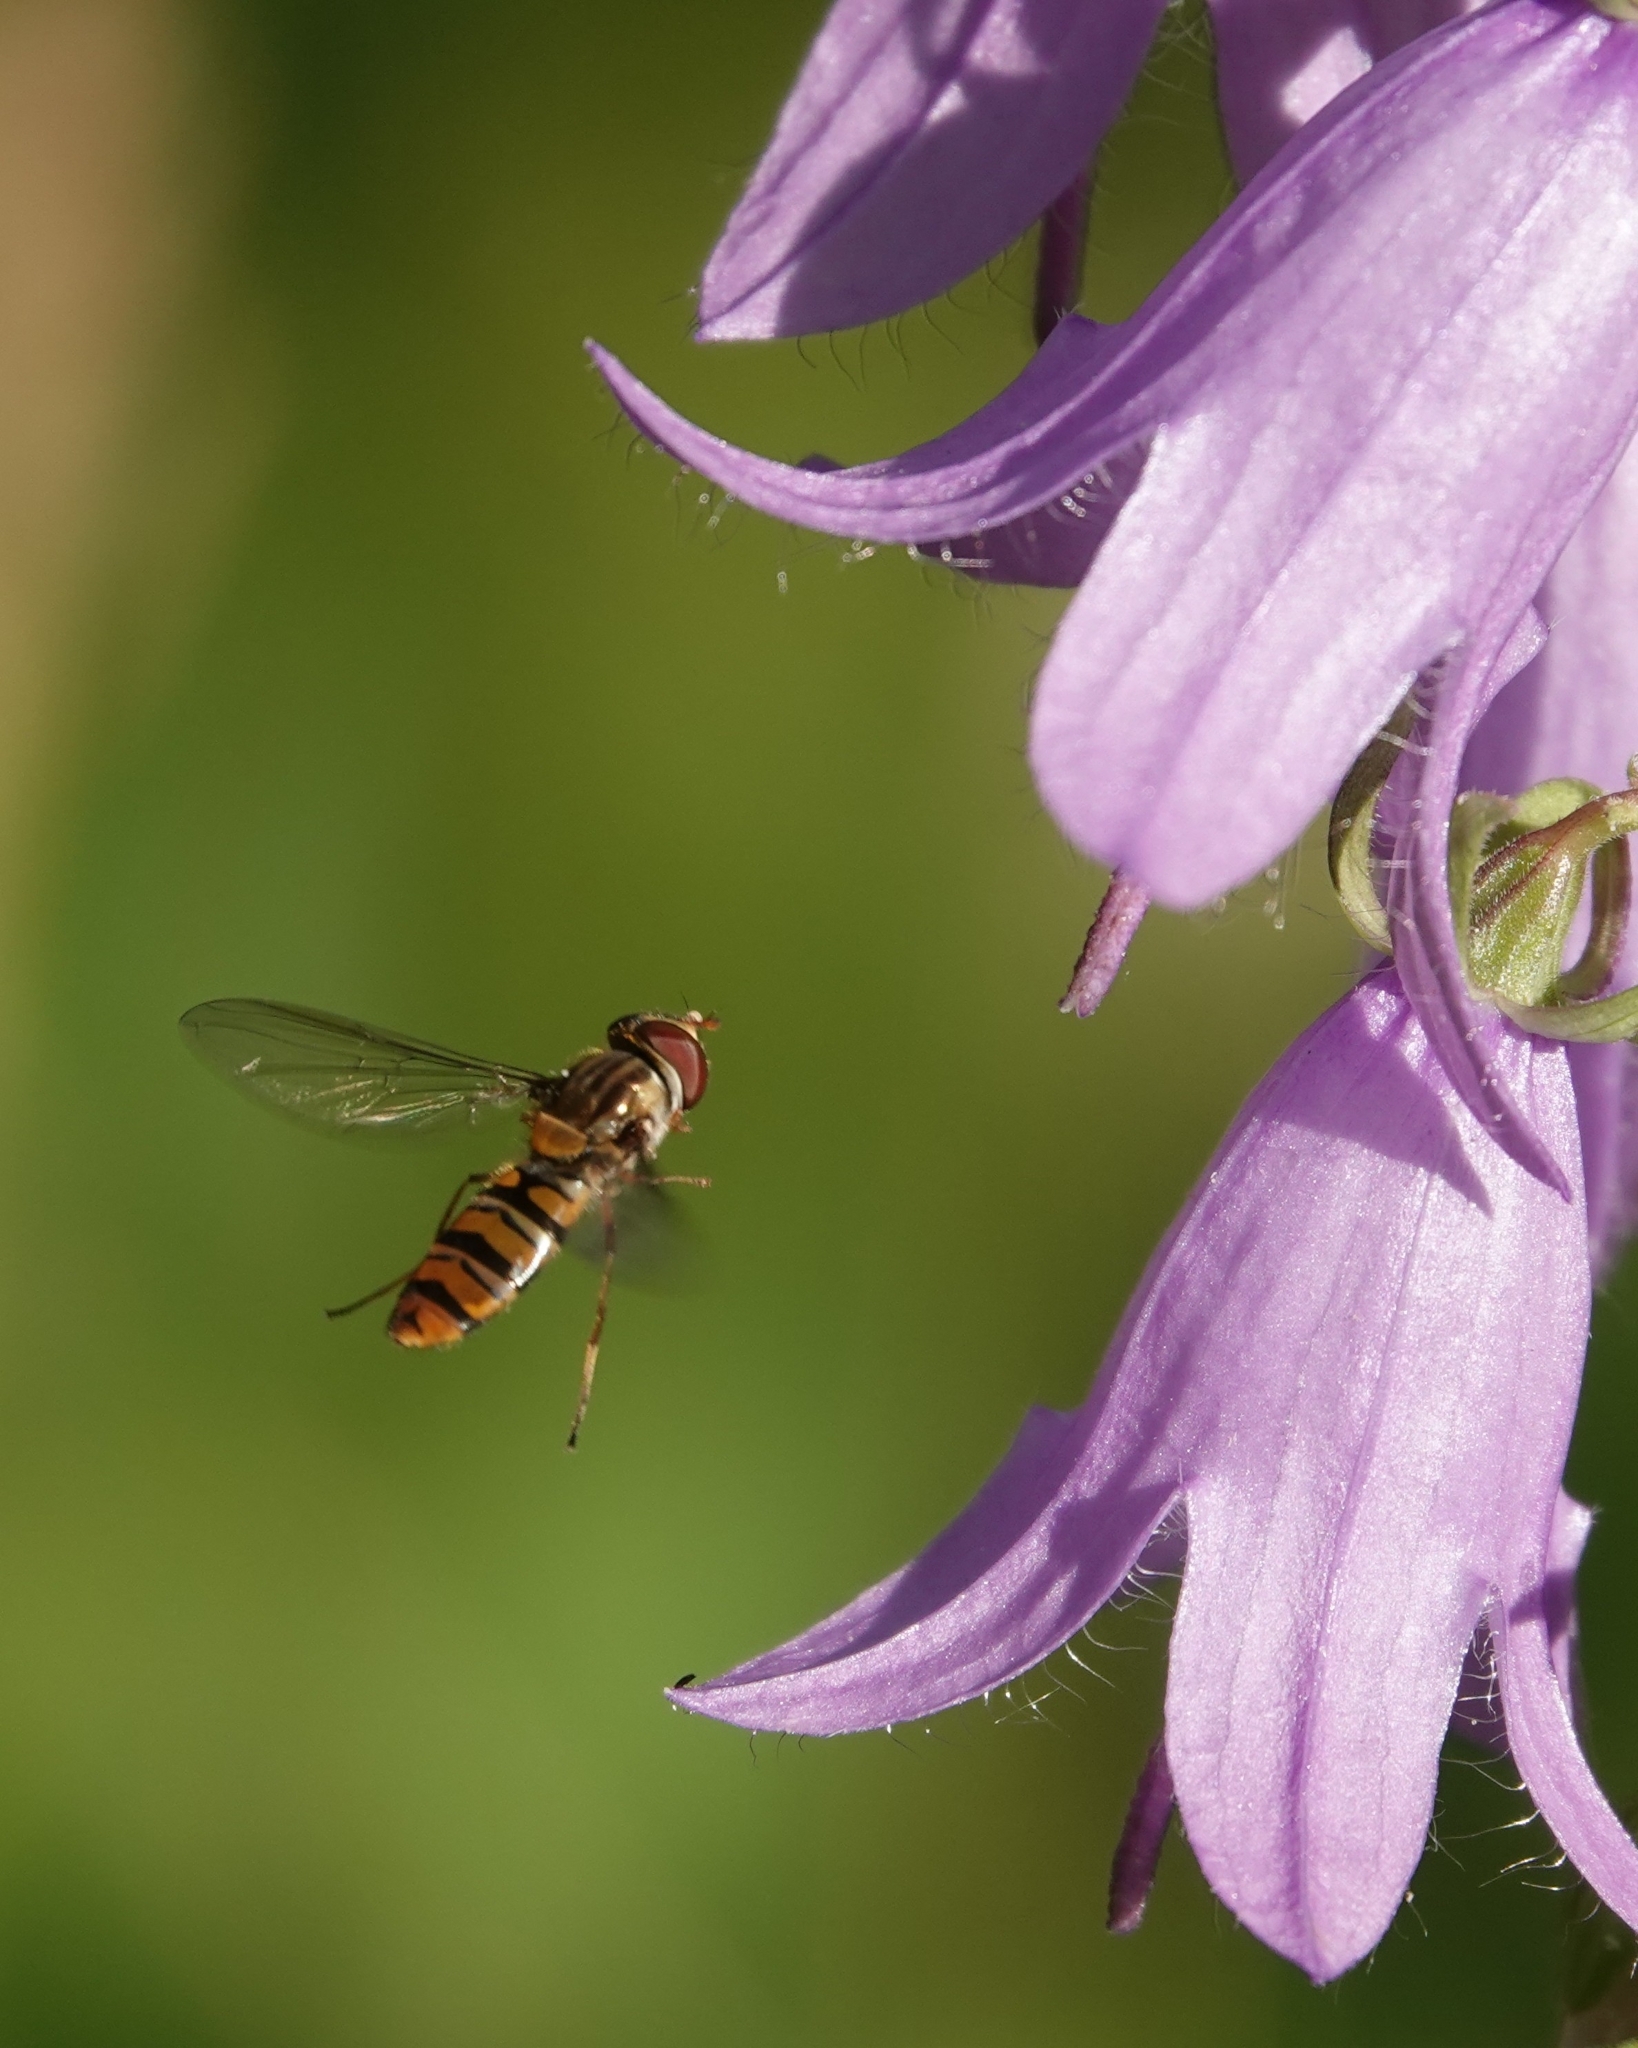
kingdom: Animalia
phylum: Arthropoda
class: Insecta
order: Diptera
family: Syrphidae
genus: Episyrphus
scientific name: Episyrphus balteatus
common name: Marmalade hoverfly
